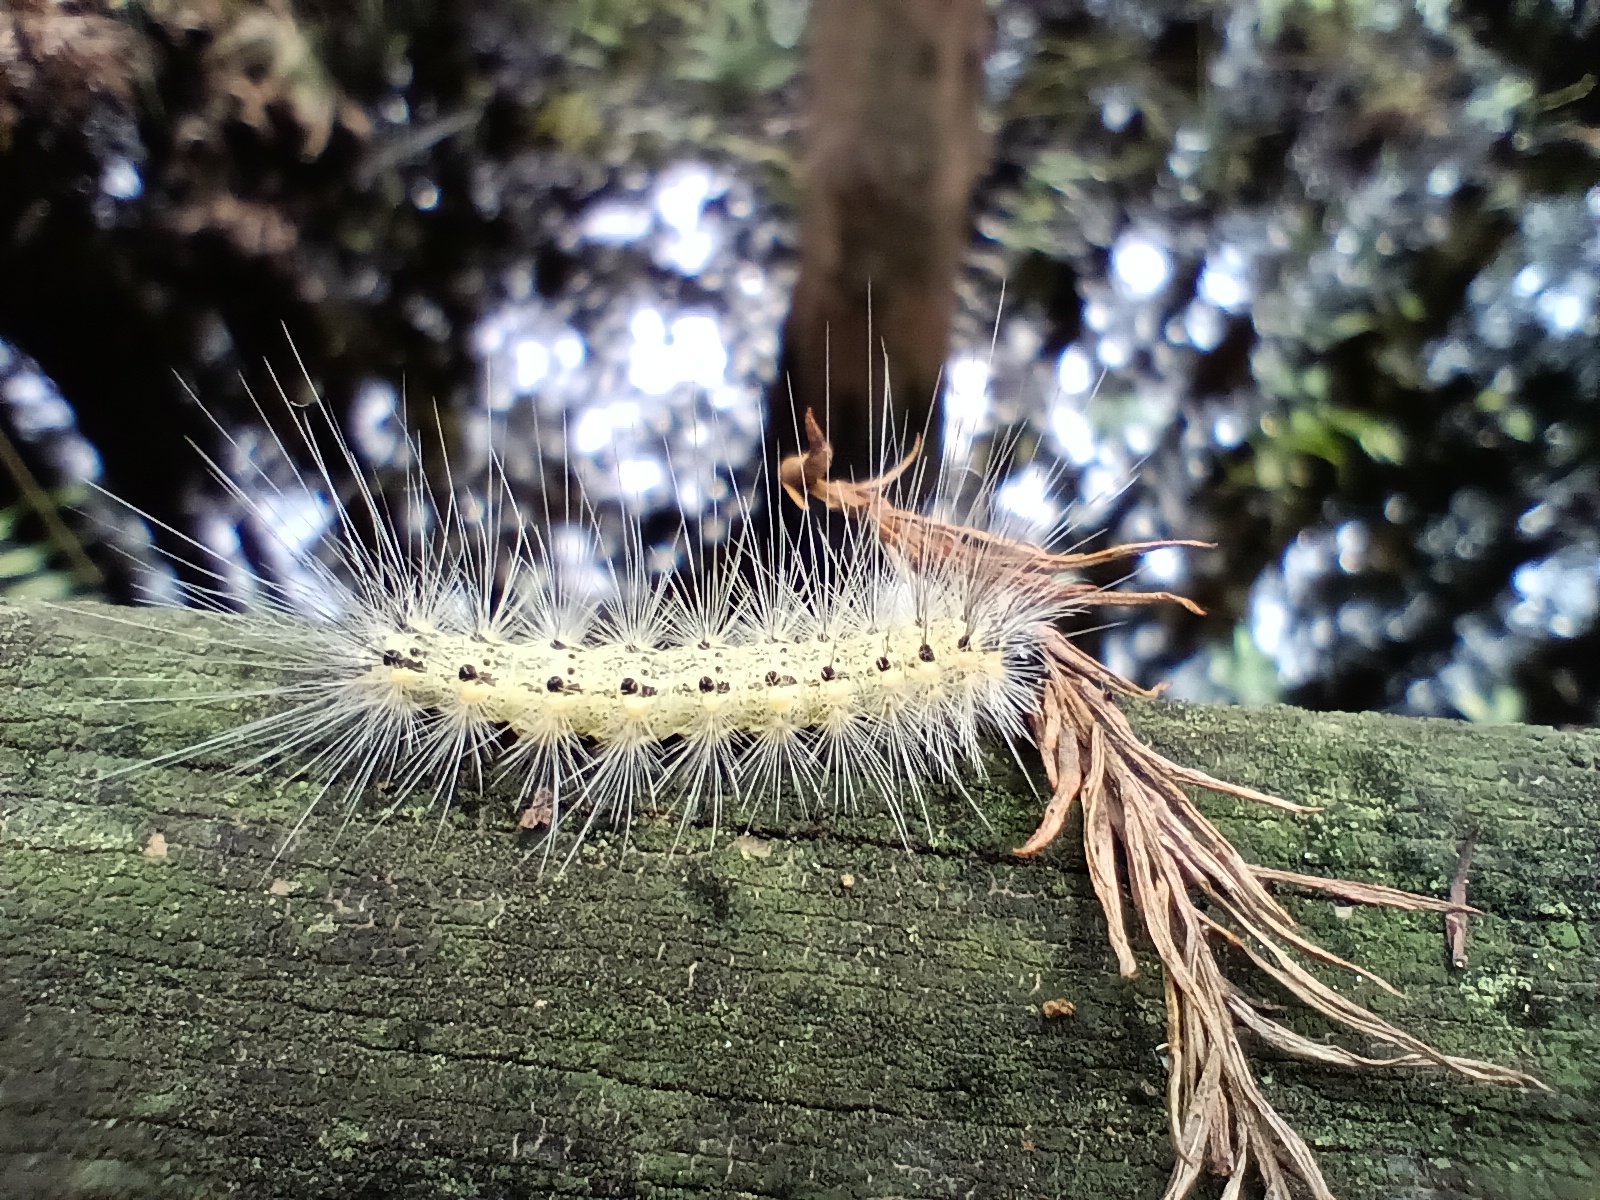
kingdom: Animalia
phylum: Arthropoda
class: Insecta
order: Lepidoptera
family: Erebidae
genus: Hyphantria
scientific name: Hyphantria cunea
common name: American white moth
